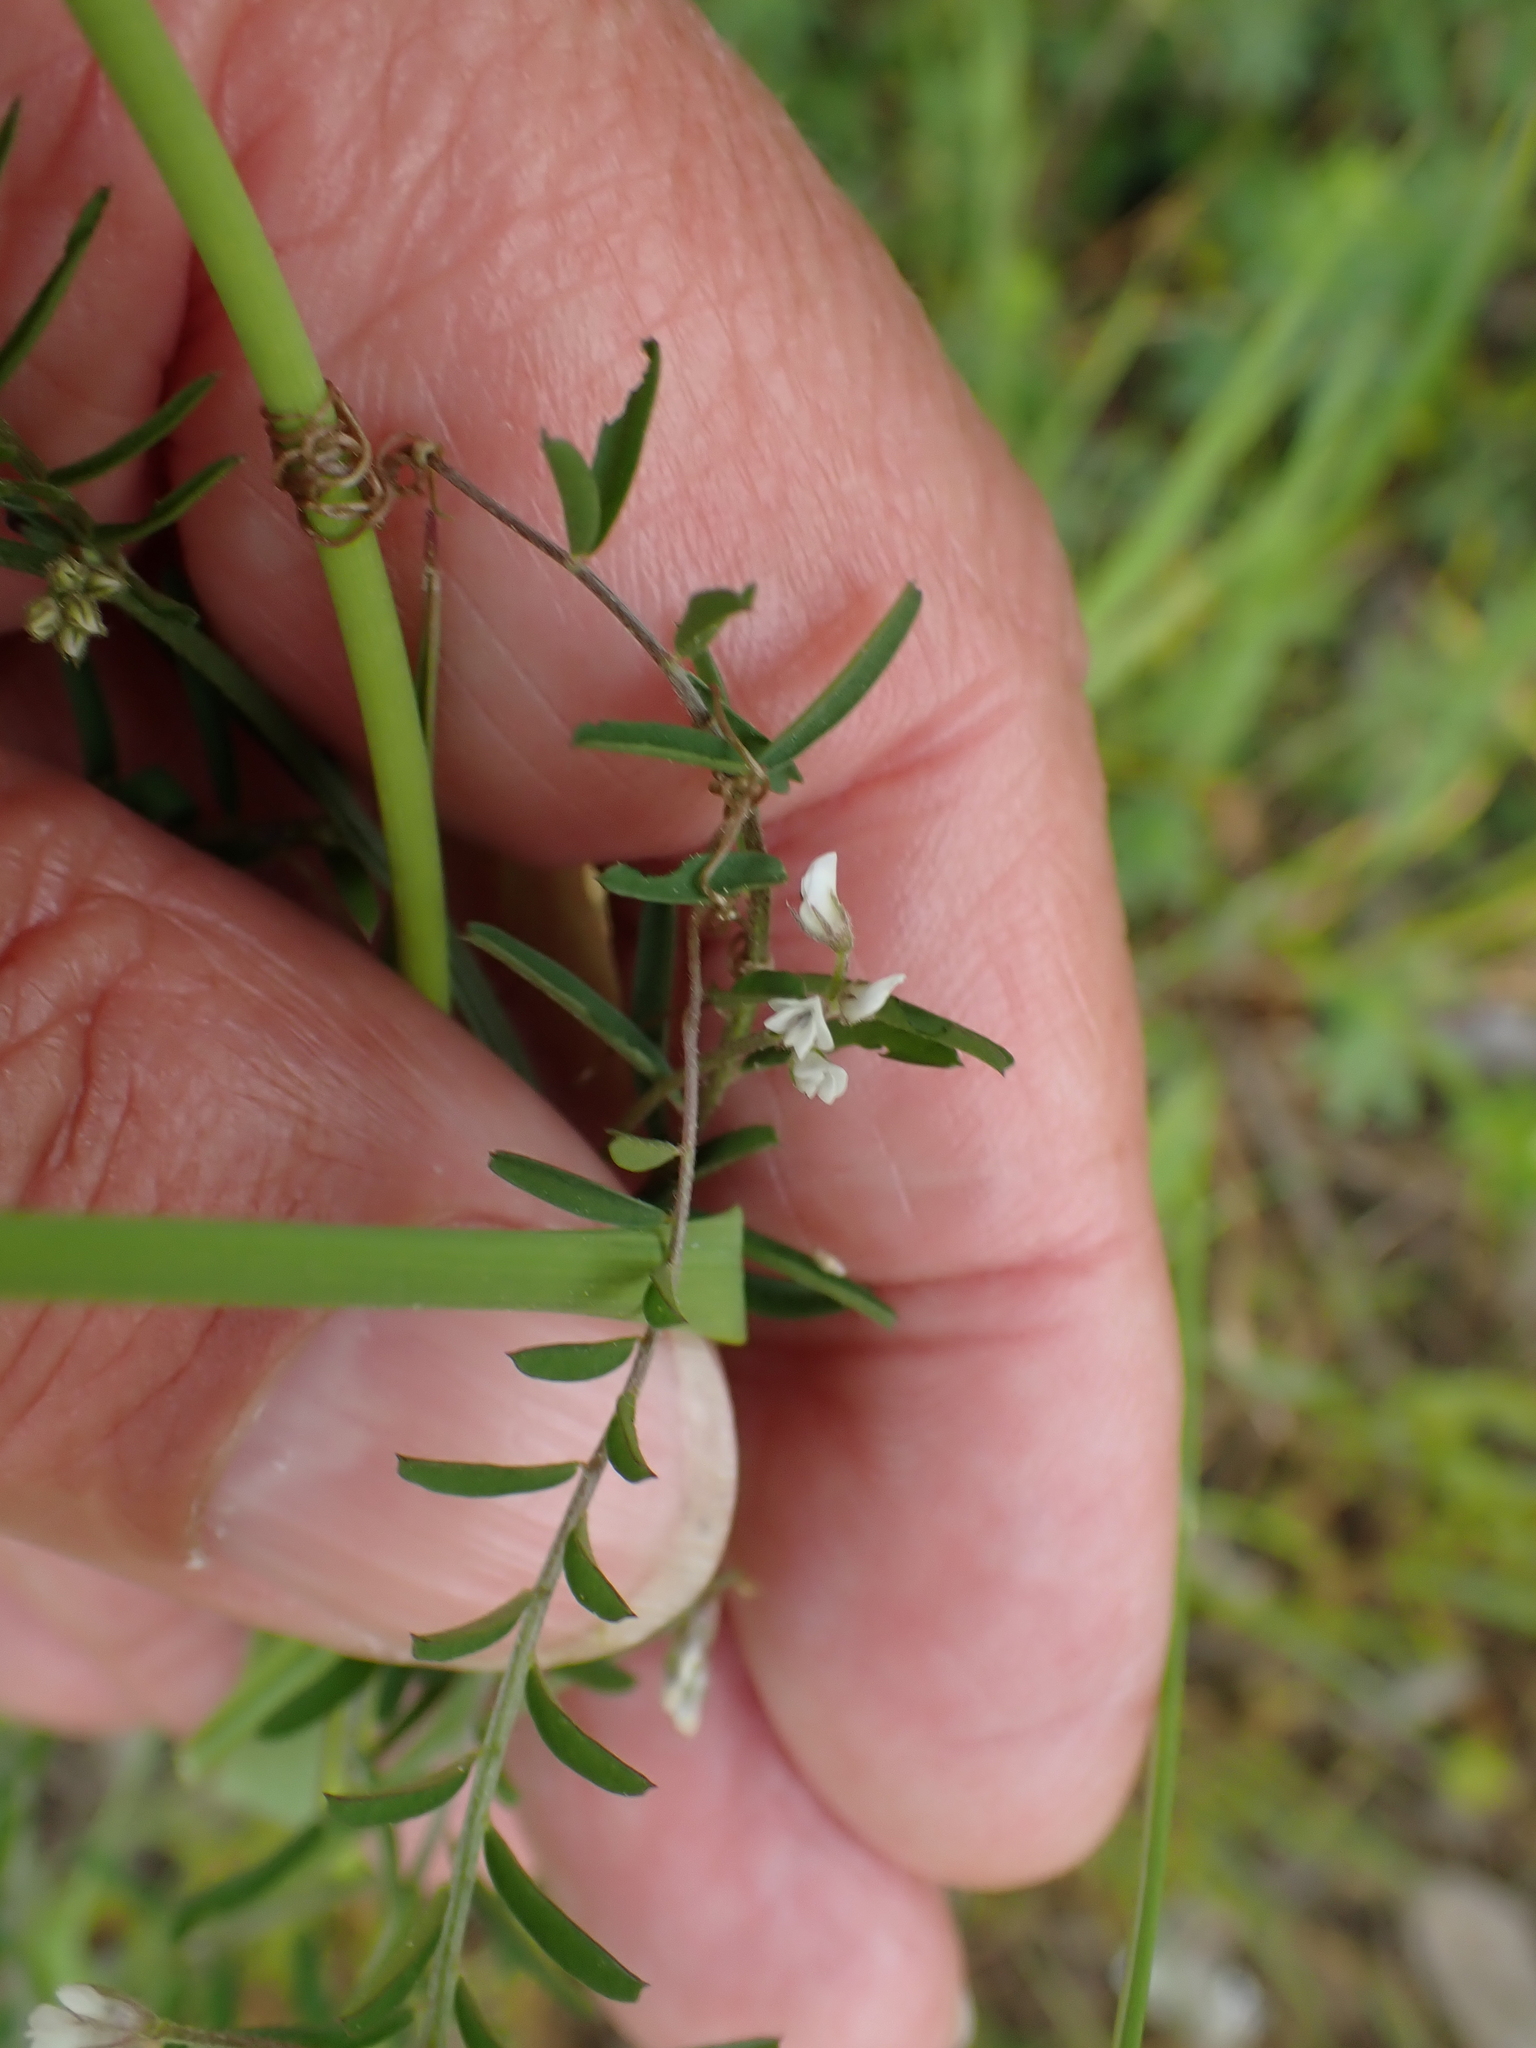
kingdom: Plantae
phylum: Tracheophyta
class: Magnoliopsida
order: Fabales
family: Fabaceae
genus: Vicia
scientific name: Vicia hirsuta
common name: Tiny vetch
